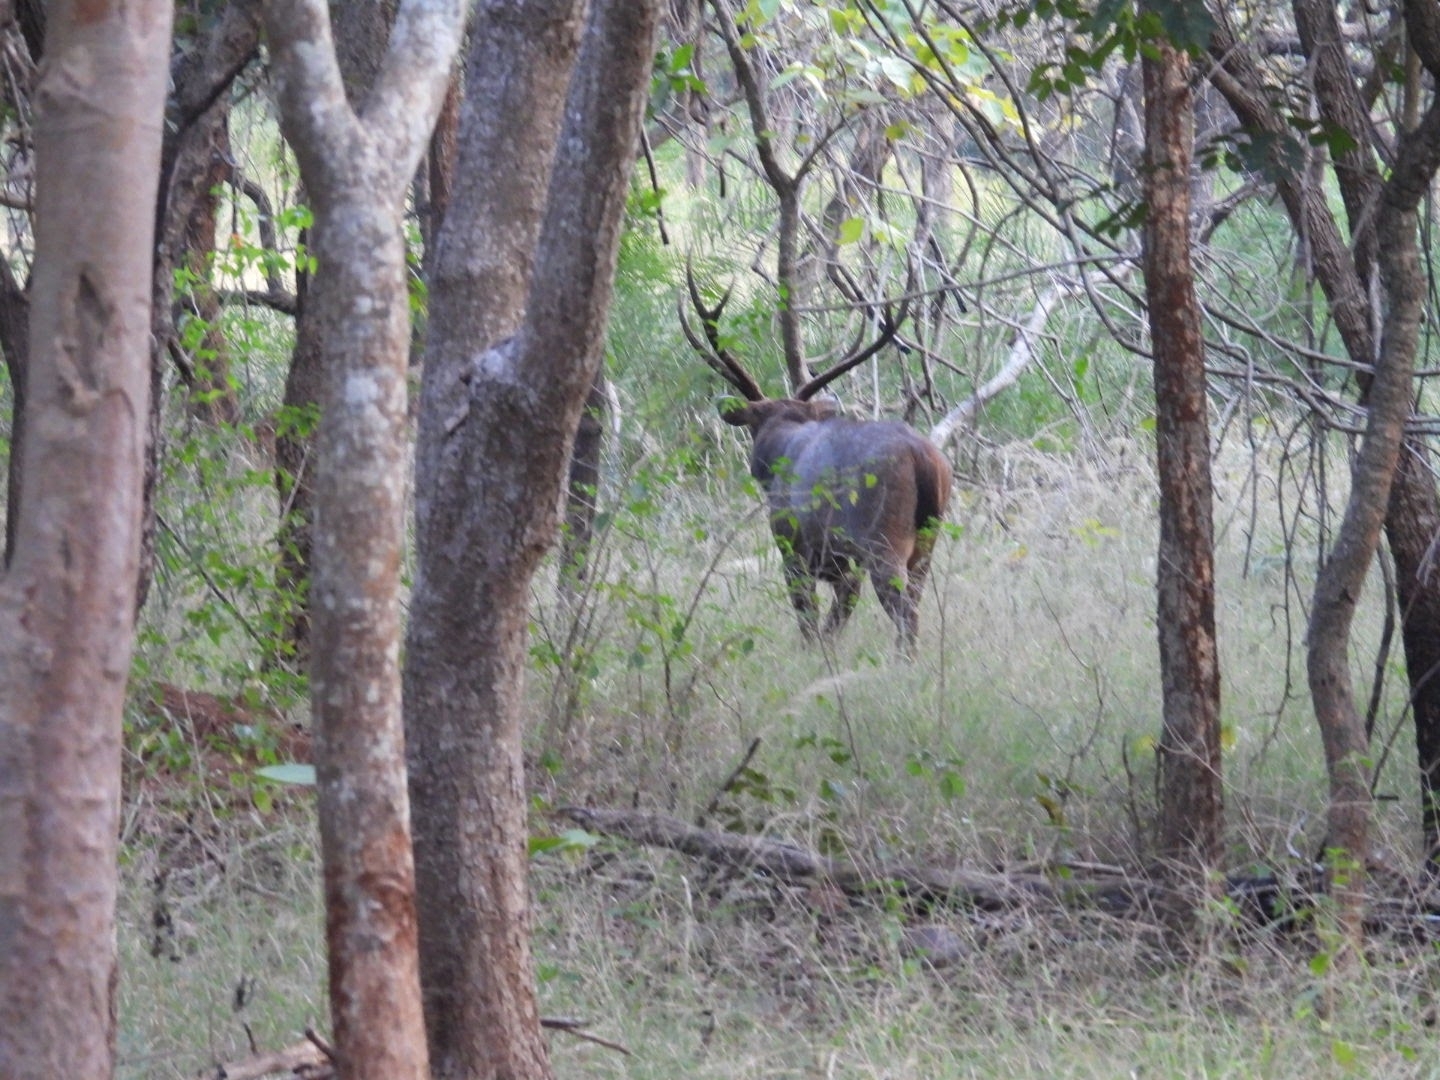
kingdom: Animalia
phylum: Chordata
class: Mammalia
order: Artiodactyla
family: Cervidae
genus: Rusa
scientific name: Rusa unicolor
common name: Sambar
